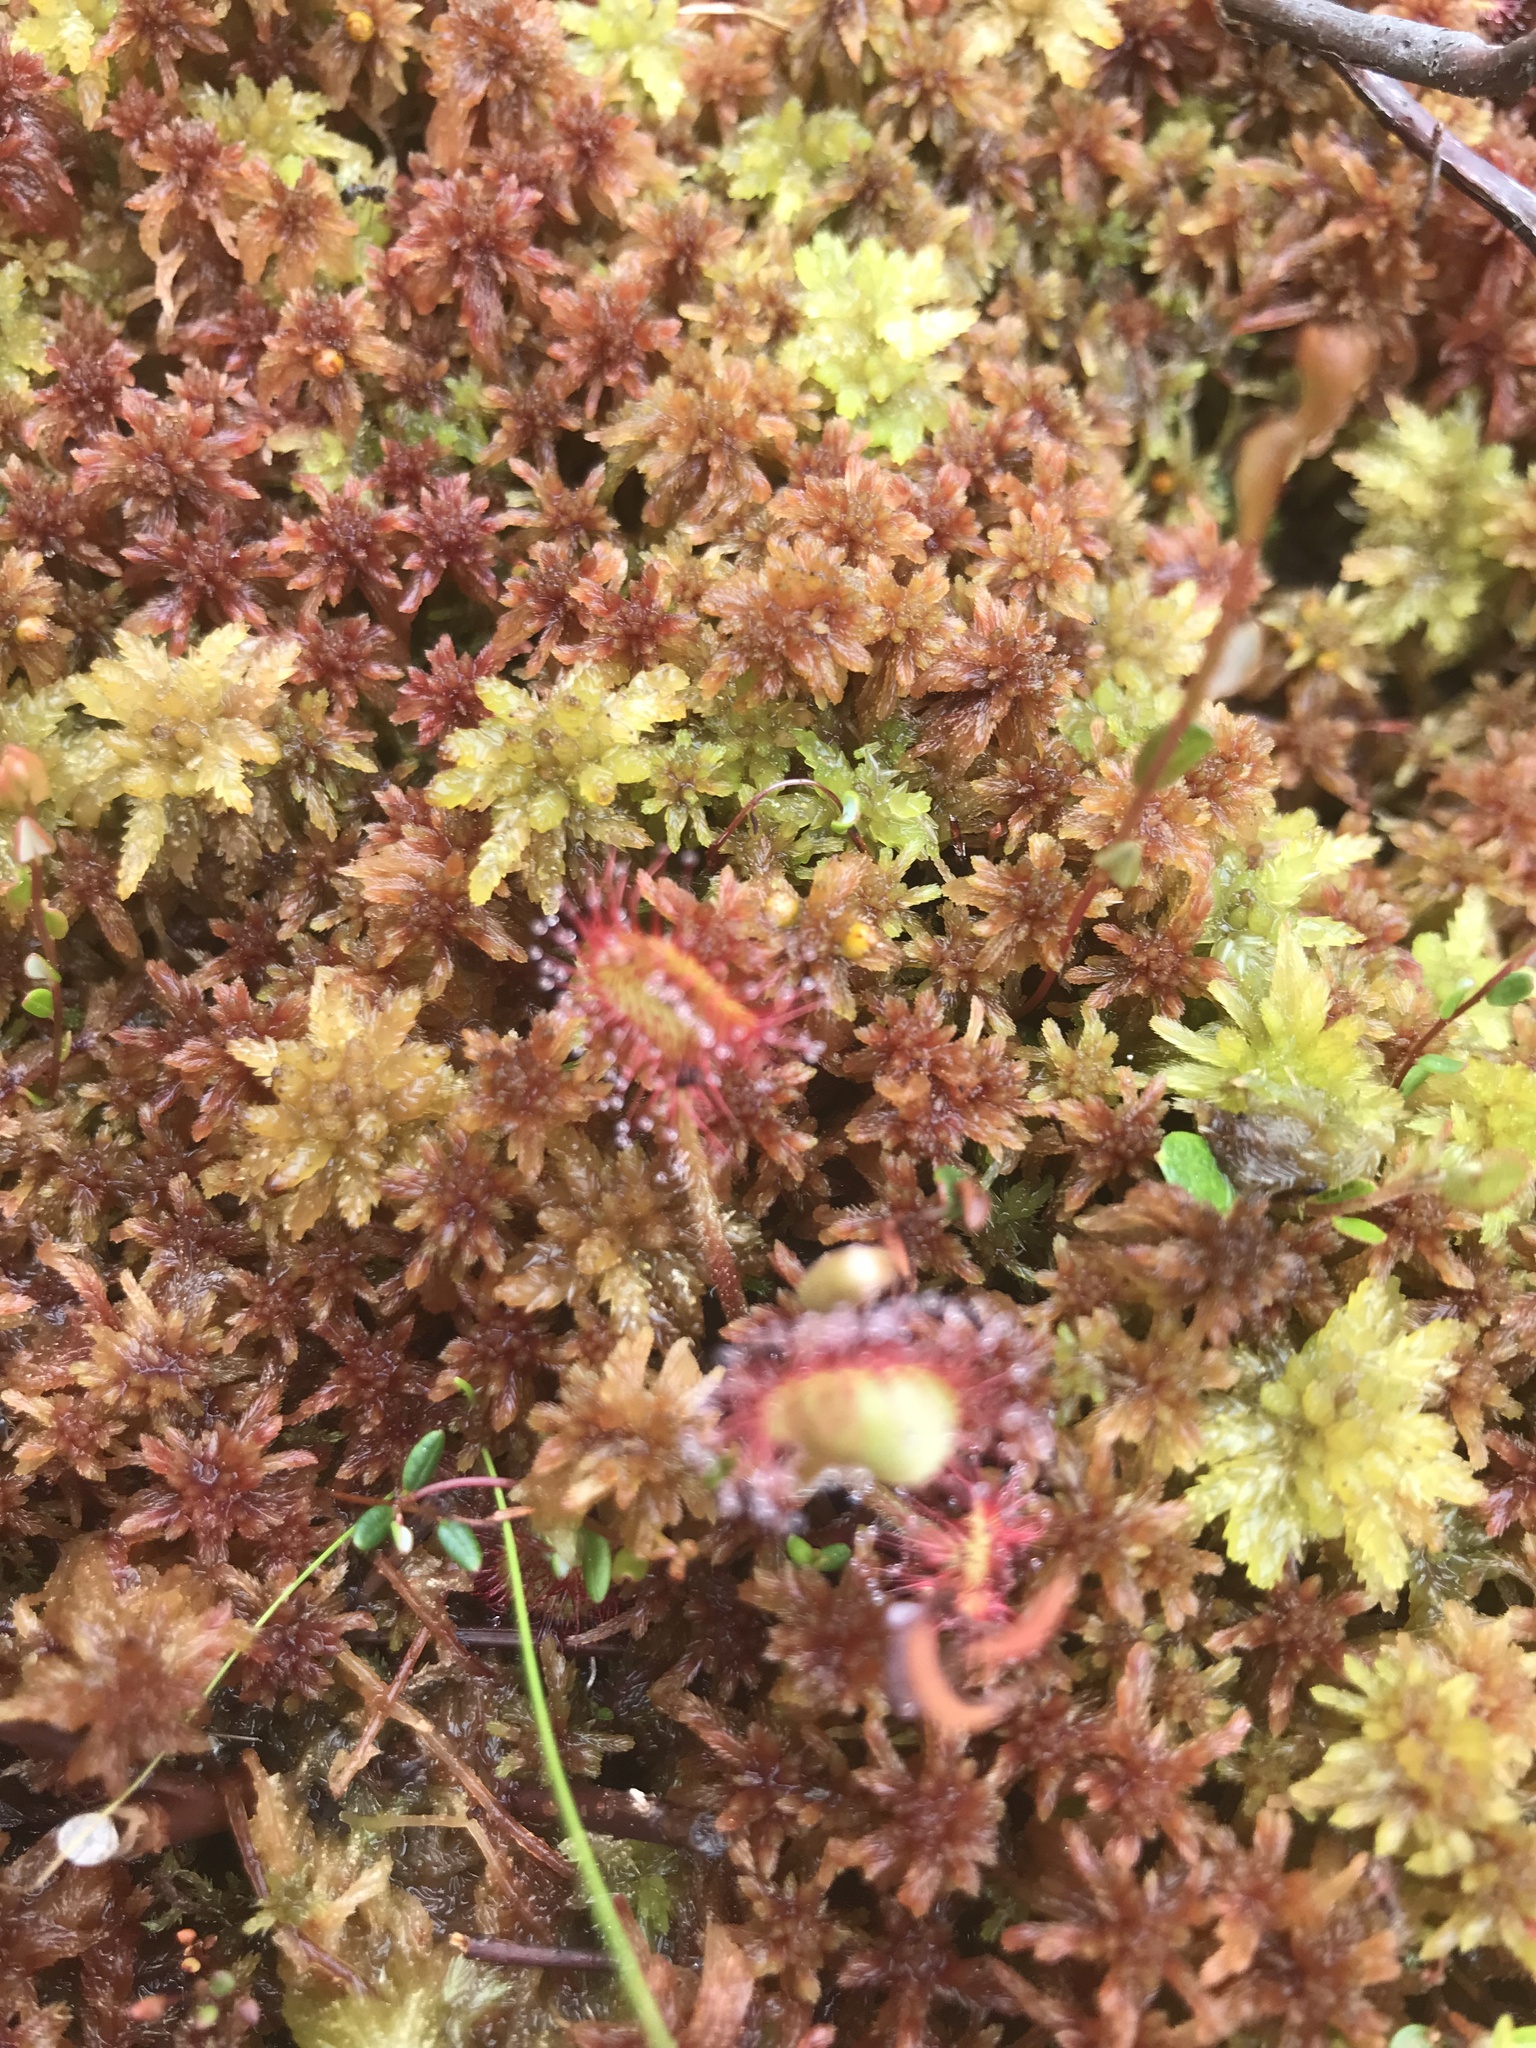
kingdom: Plantae
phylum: Tracheophyta
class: Magnoliopsida
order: Caryophyllales
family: Droseraceae
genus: Drosera
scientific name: Drosera rotundifolia
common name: Round-leaved sundew
